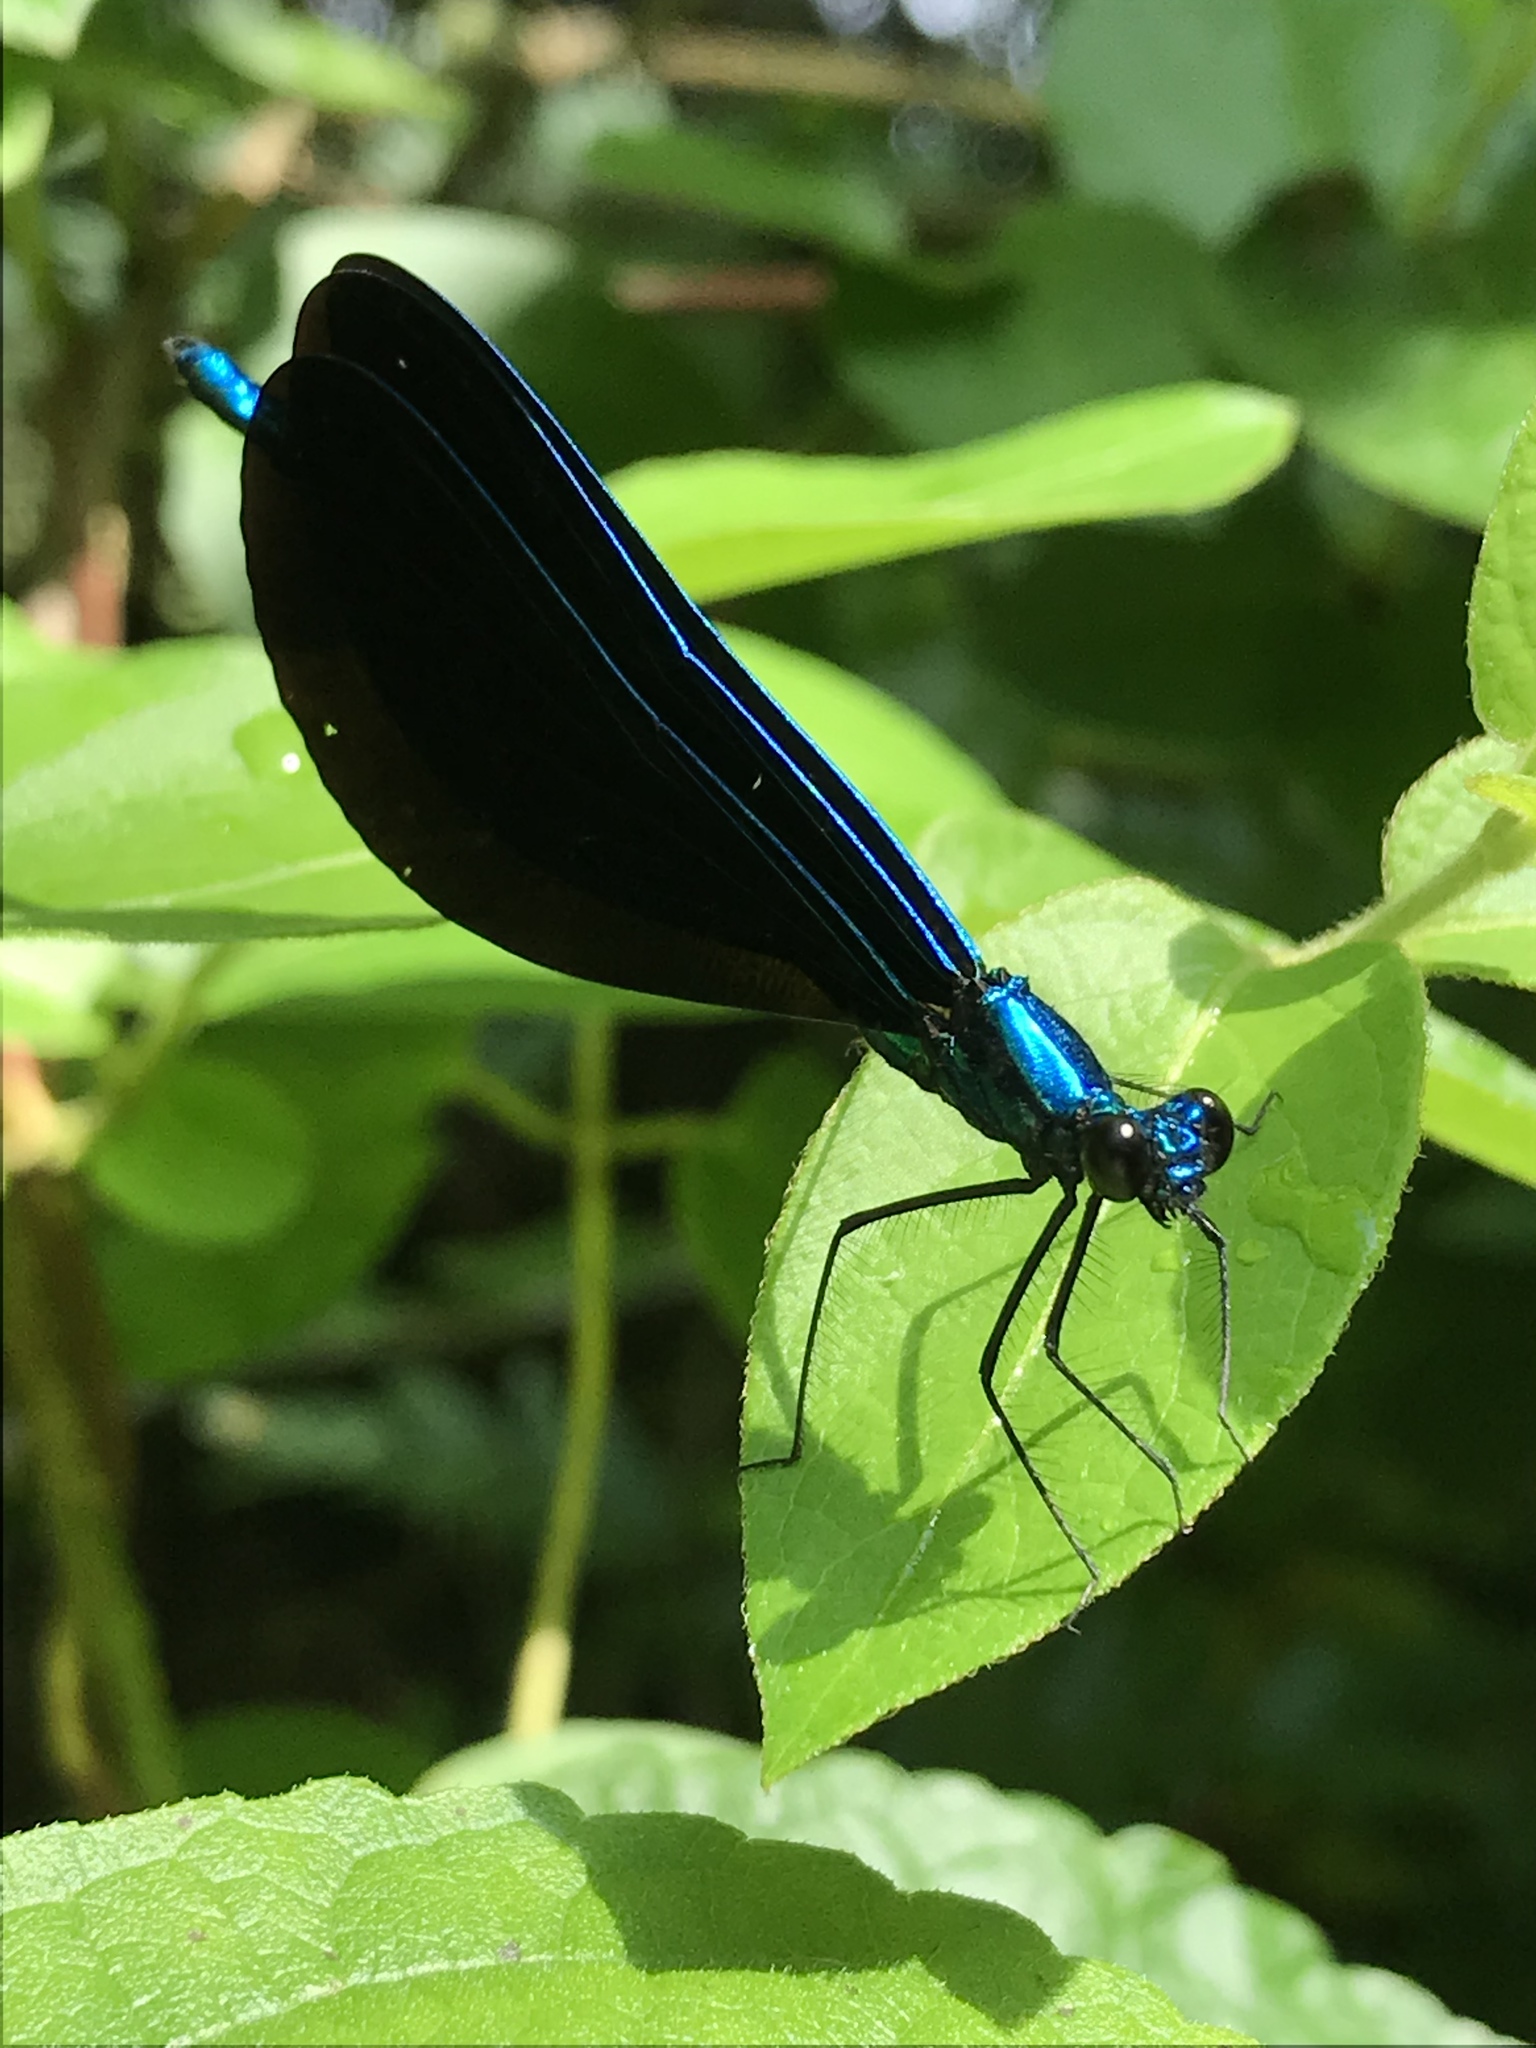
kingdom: Animalia
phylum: Arthropoda
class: Insecta
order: Odonata
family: Calopterygidae
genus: Calopteryx
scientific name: Calopteryx maculata
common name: Ebony jewelwing
